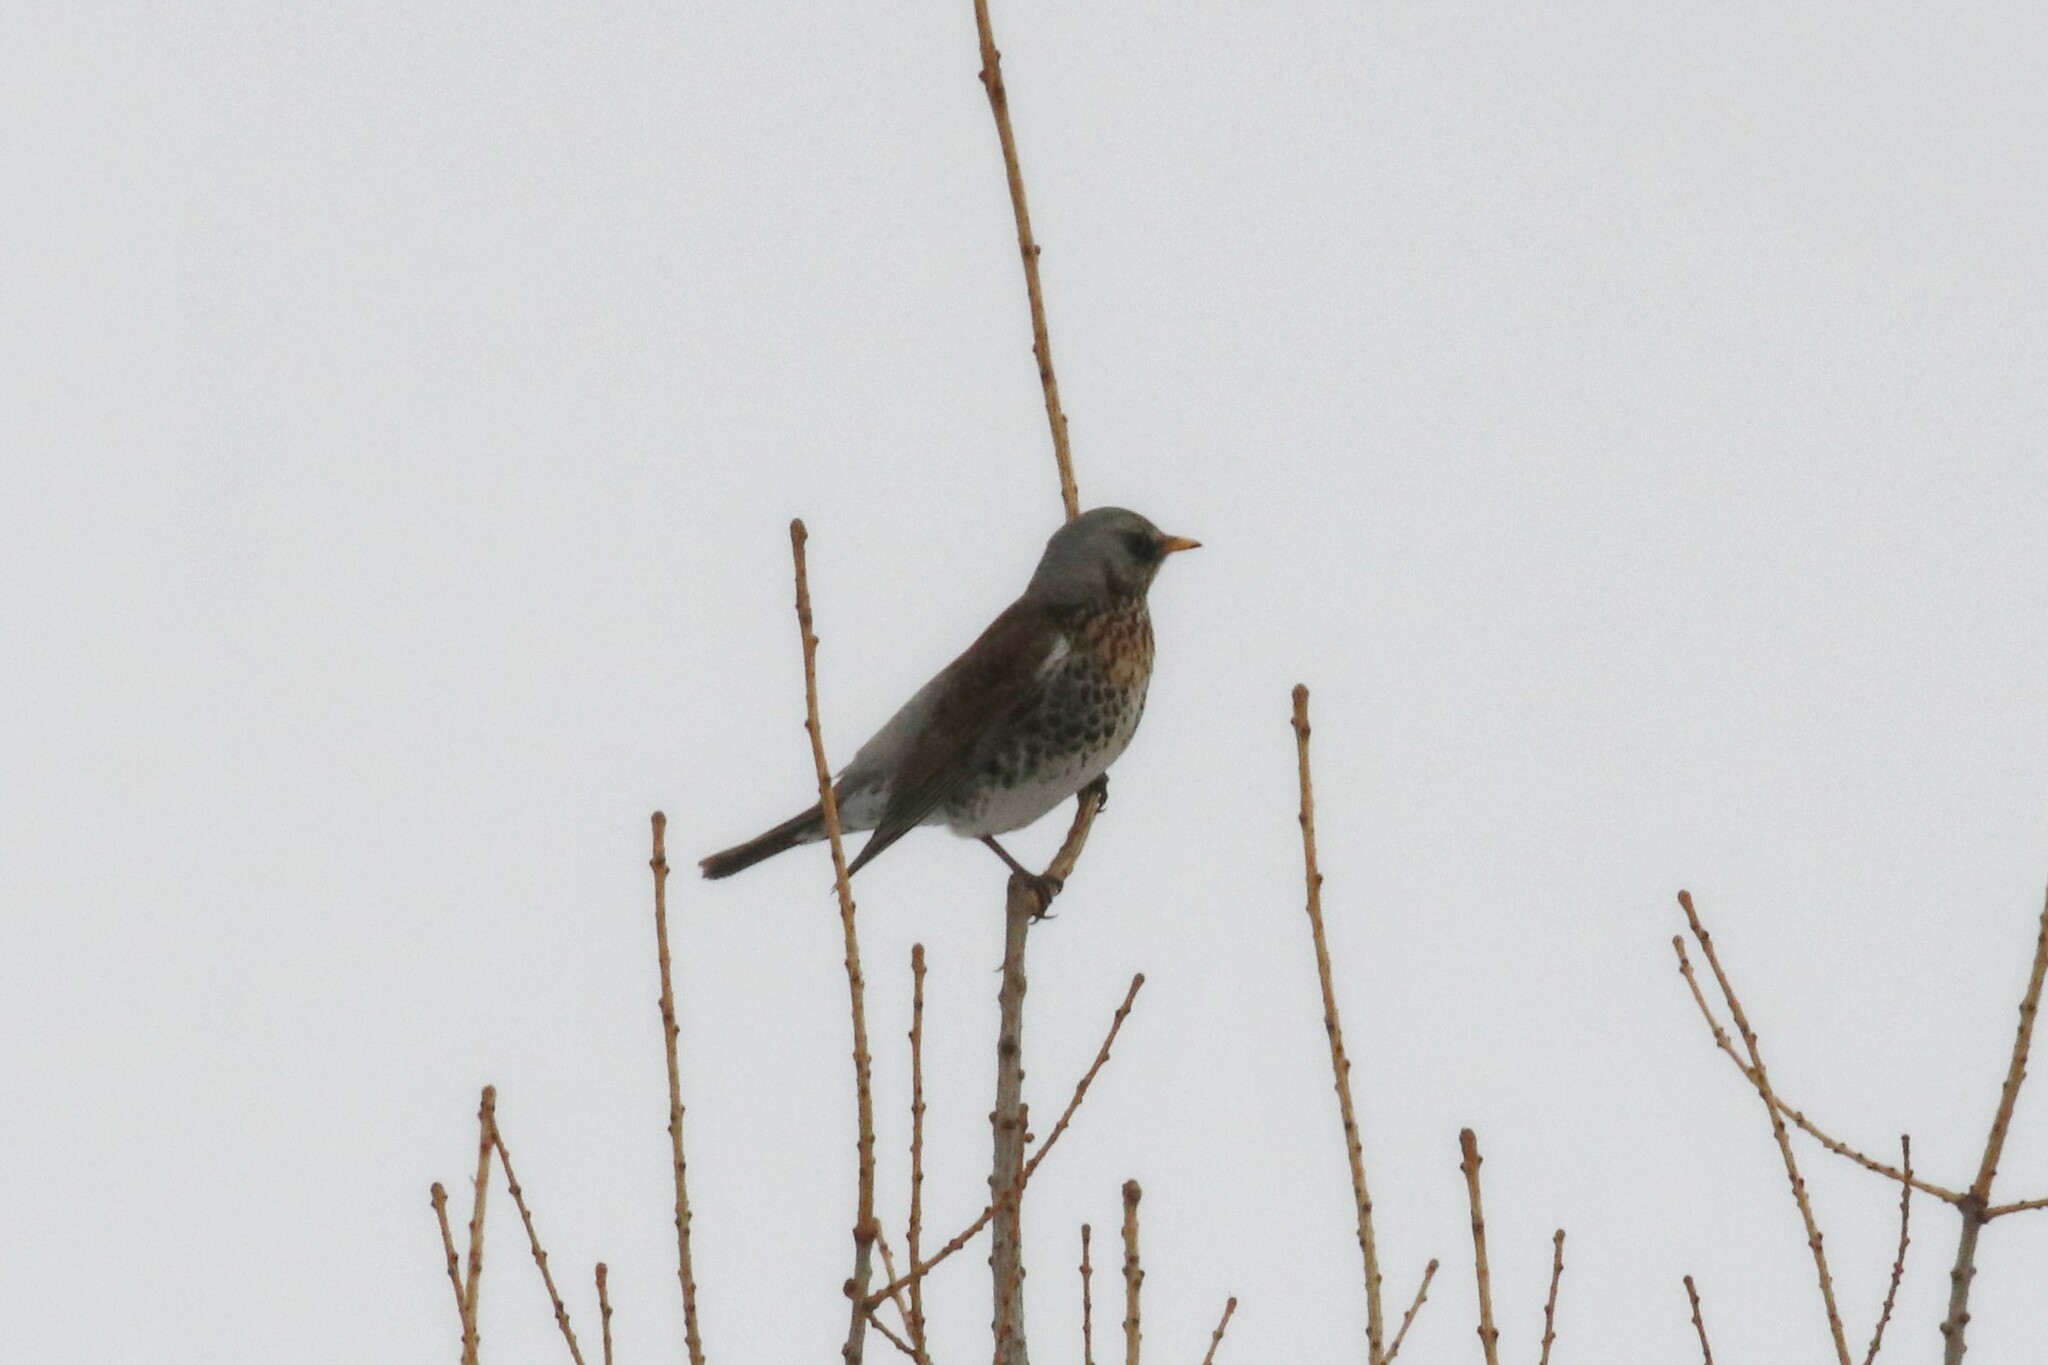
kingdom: Animalia
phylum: Chordata
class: Aves
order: Passeriformes
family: Turdidae
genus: Turdus
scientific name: Turdus pilaris
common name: Fieldfare
